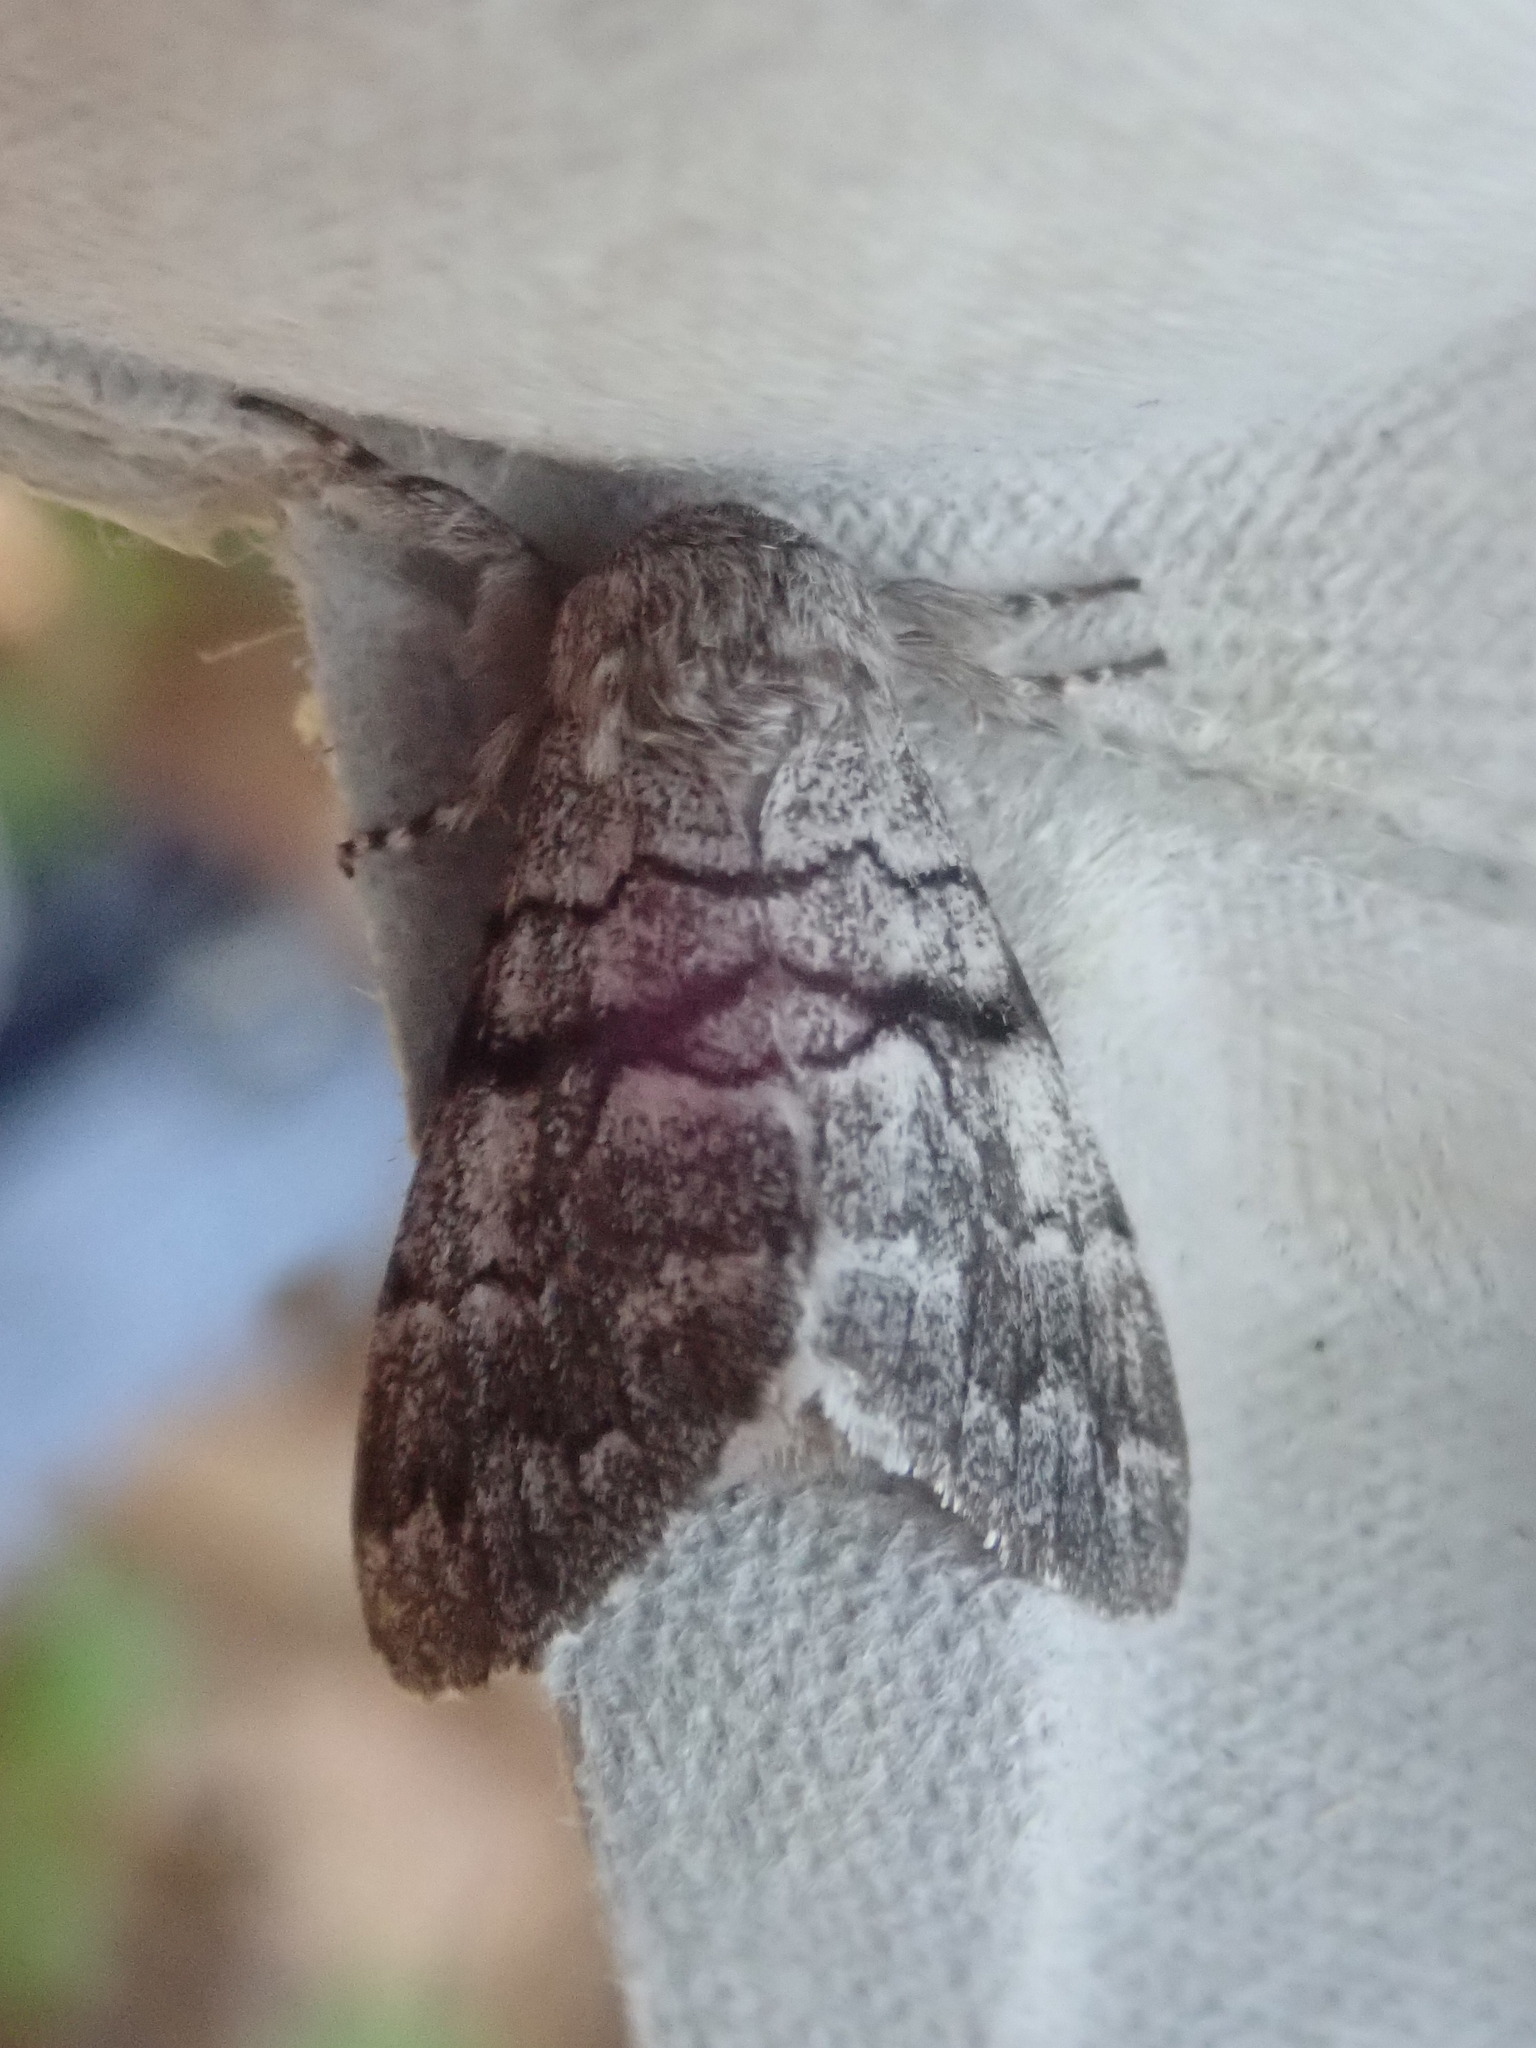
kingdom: Animalia
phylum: Arthropoda
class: Insecta
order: Lepidoptera
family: Noctuidae
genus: Panthea
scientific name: Panthea furcilla
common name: Eastern panthea moth
